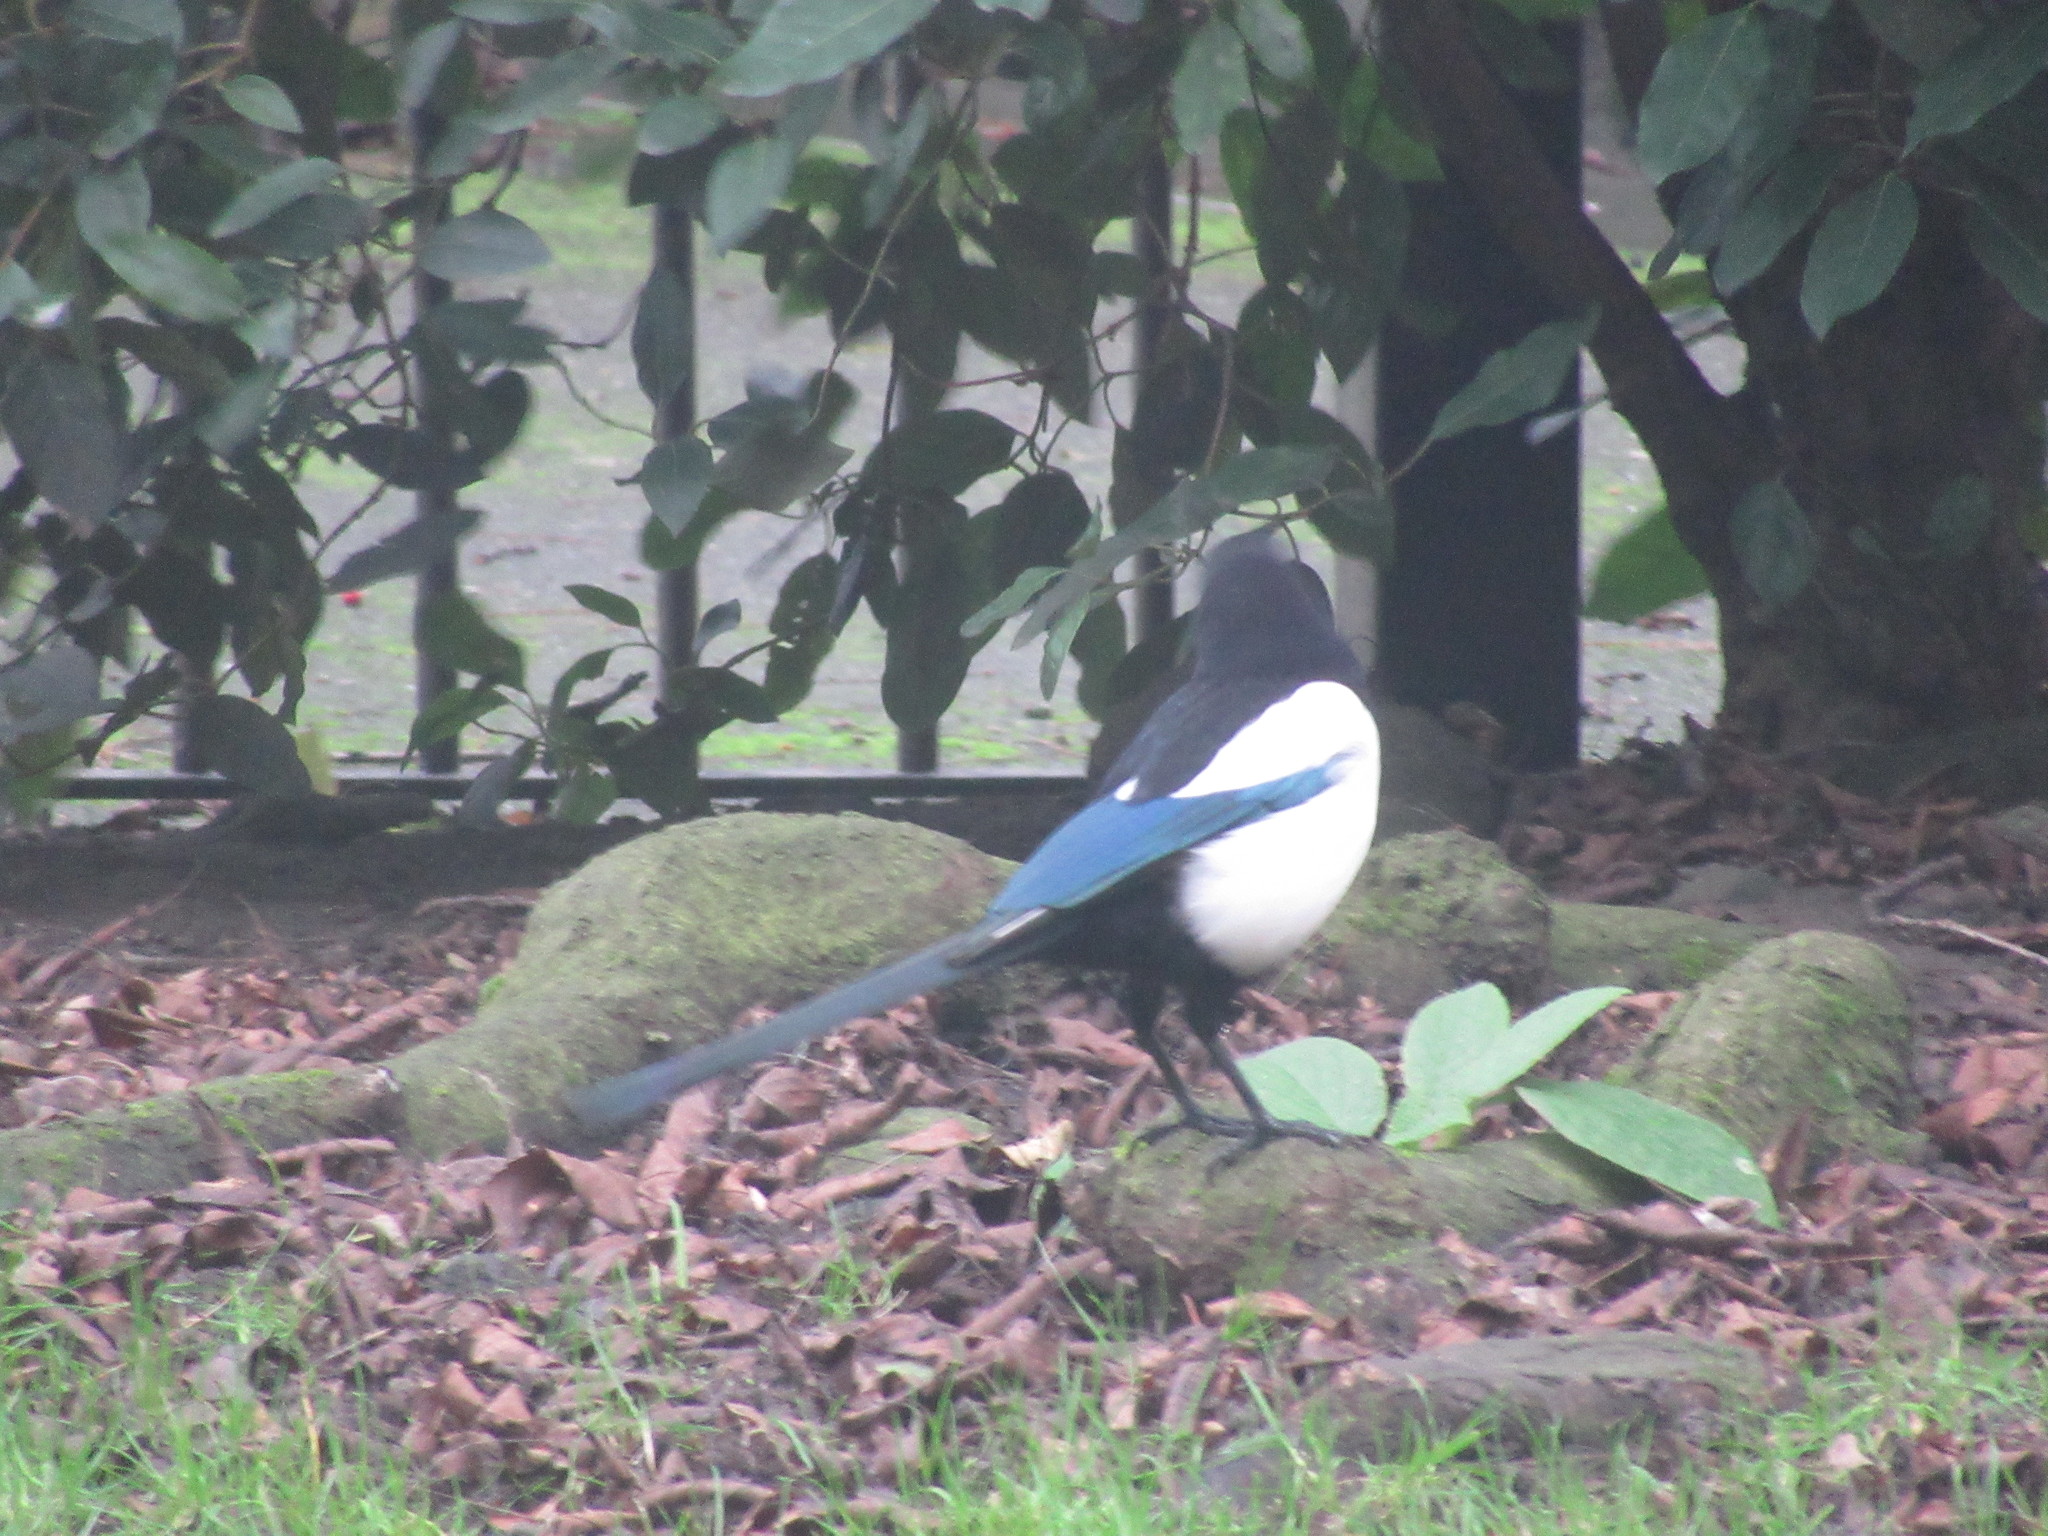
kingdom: Animalia
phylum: Chordata
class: Aves
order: Passeriformes
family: Corvidae
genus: Pica
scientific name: Pica pica
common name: Eurasian magpie
